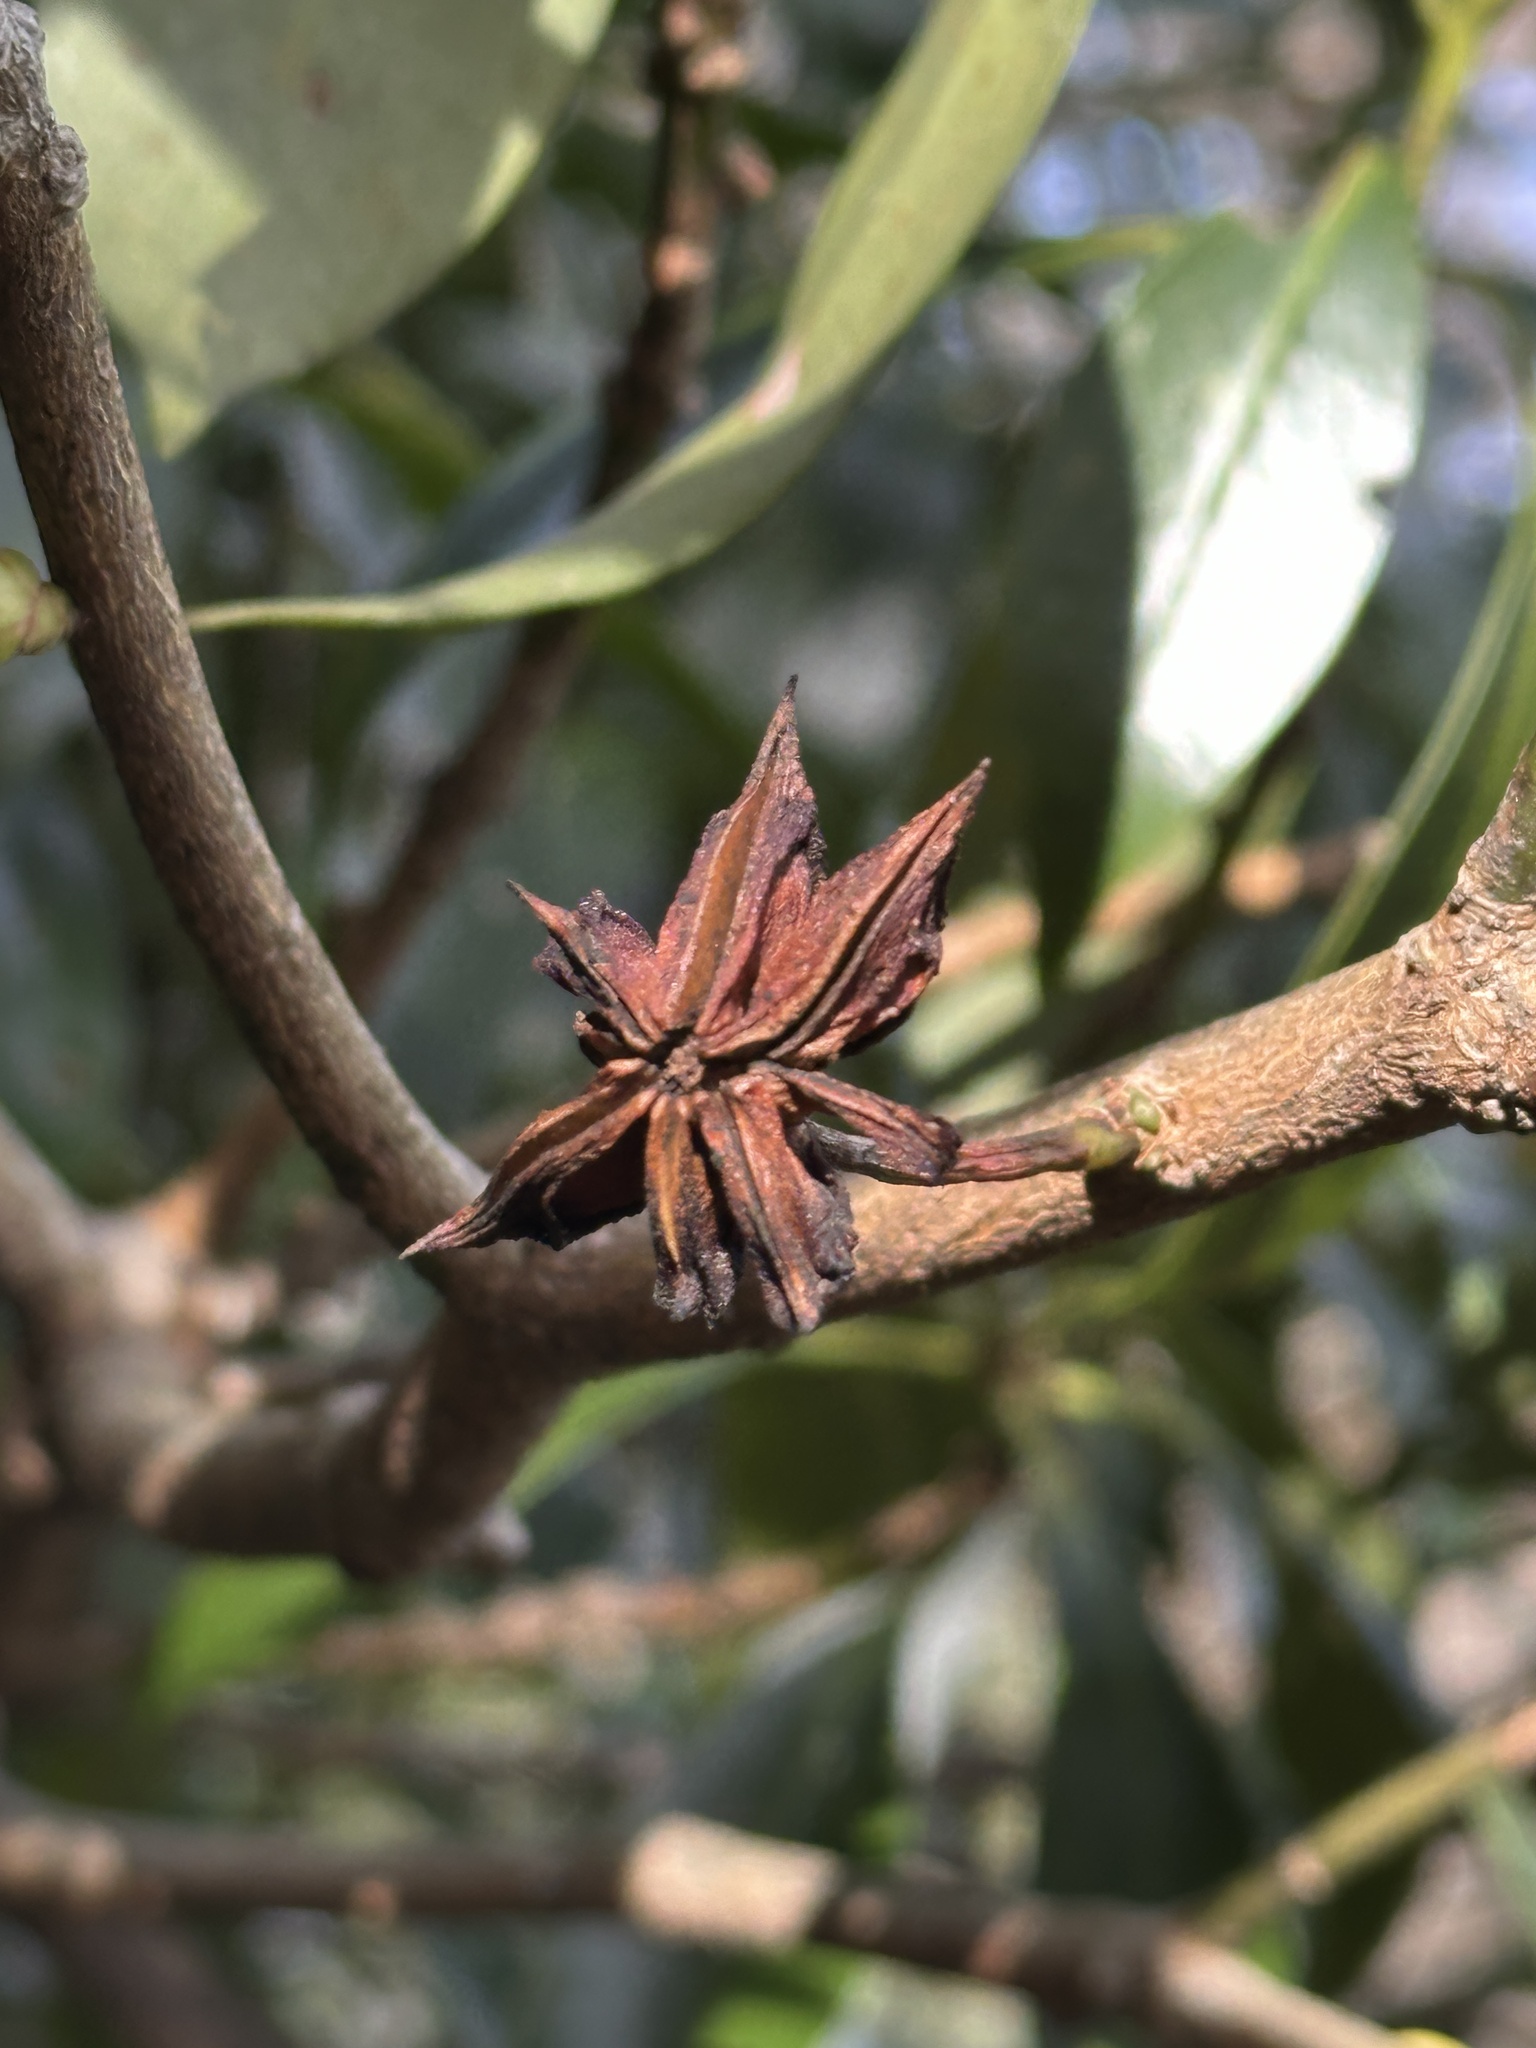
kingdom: Plantae
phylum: Tracheophyta
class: Magnoliopsida
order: Austrobaileyales
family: Schisandraceae
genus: Illicium
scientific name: Illicium anisatum
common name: Sacred anisetree
